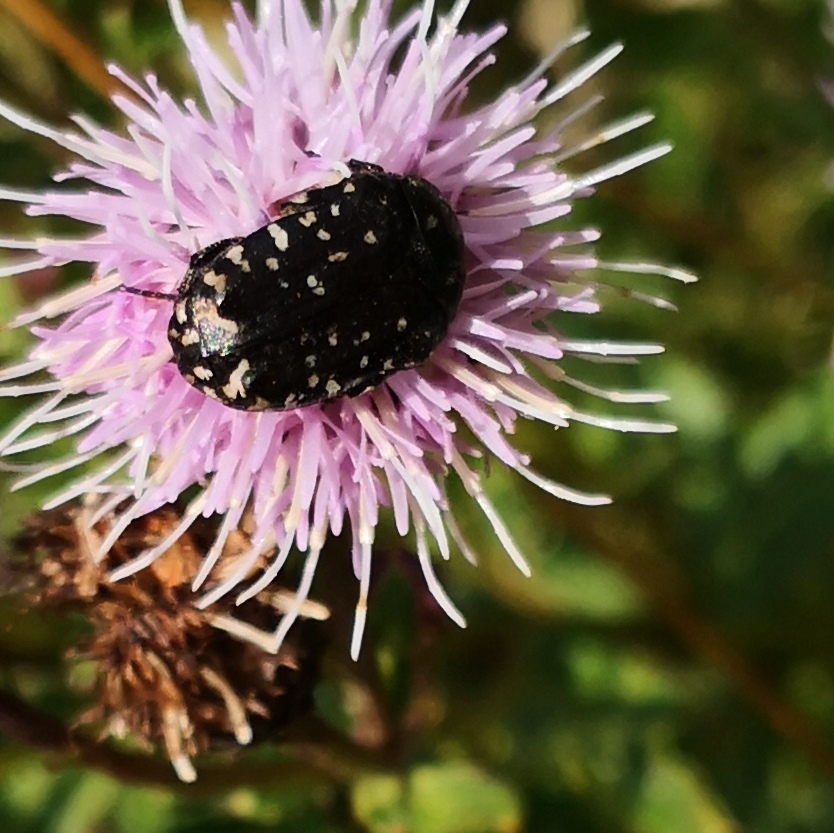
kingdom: Animalia
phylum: Arthropoda
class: Insecta
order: Coleoptera
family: Scarabaeidae
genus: Oxythyrea
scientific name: Oxythyrea funesta
